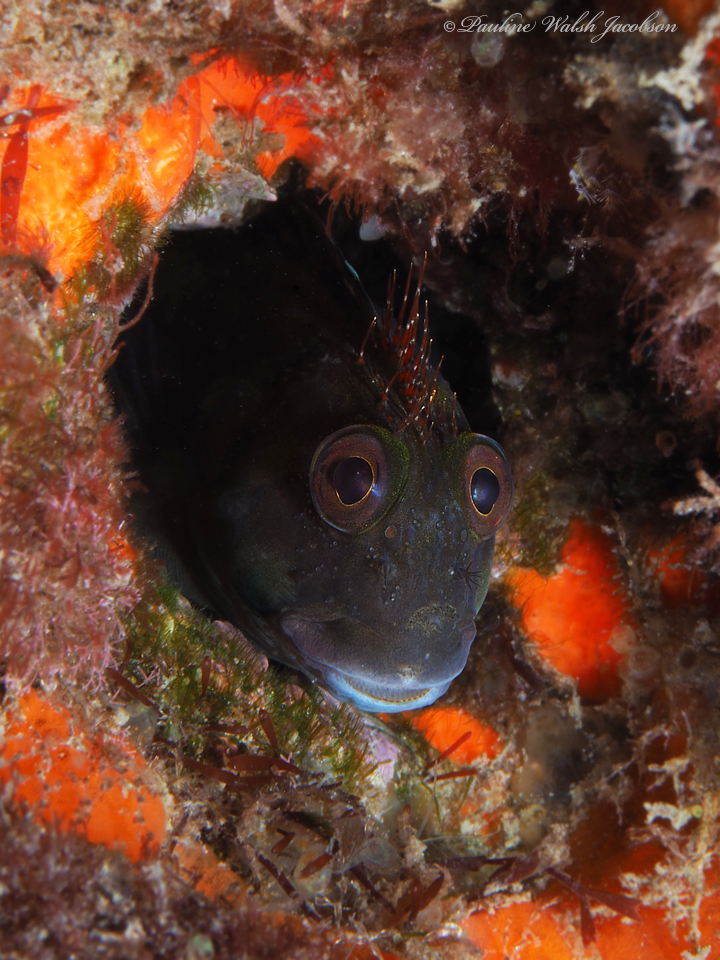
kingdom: Animalia
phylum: Chordata
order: Perciformes
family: Blenniidae
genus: Scartella
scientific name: Scartella cristata
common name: Molly miller
